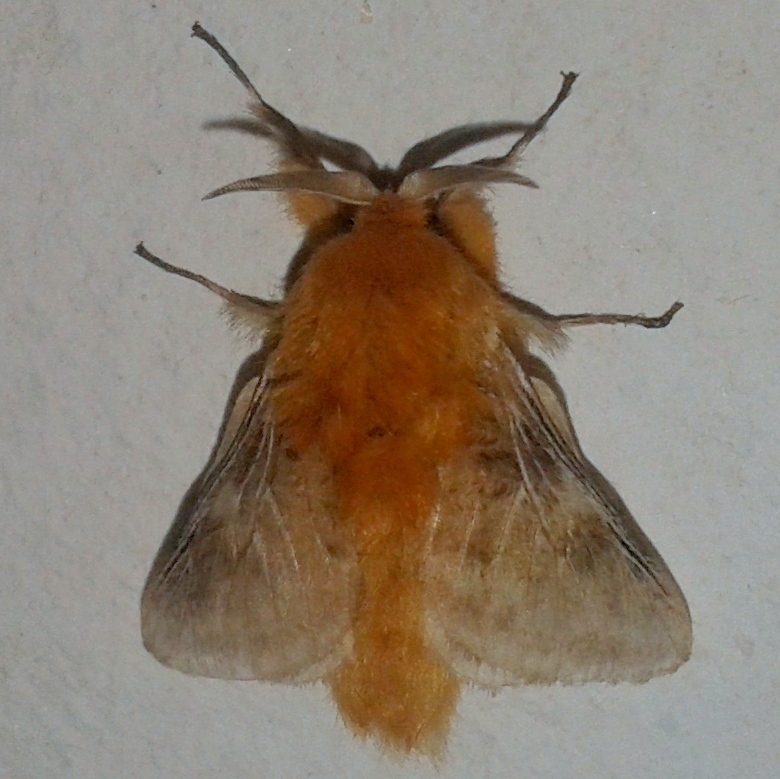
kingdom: Animalia
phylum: Arthropoda
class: Insecta
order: Lepidoptera
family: Megalopygidae
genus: Megalopyge
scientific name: Megalopyge vulpina
